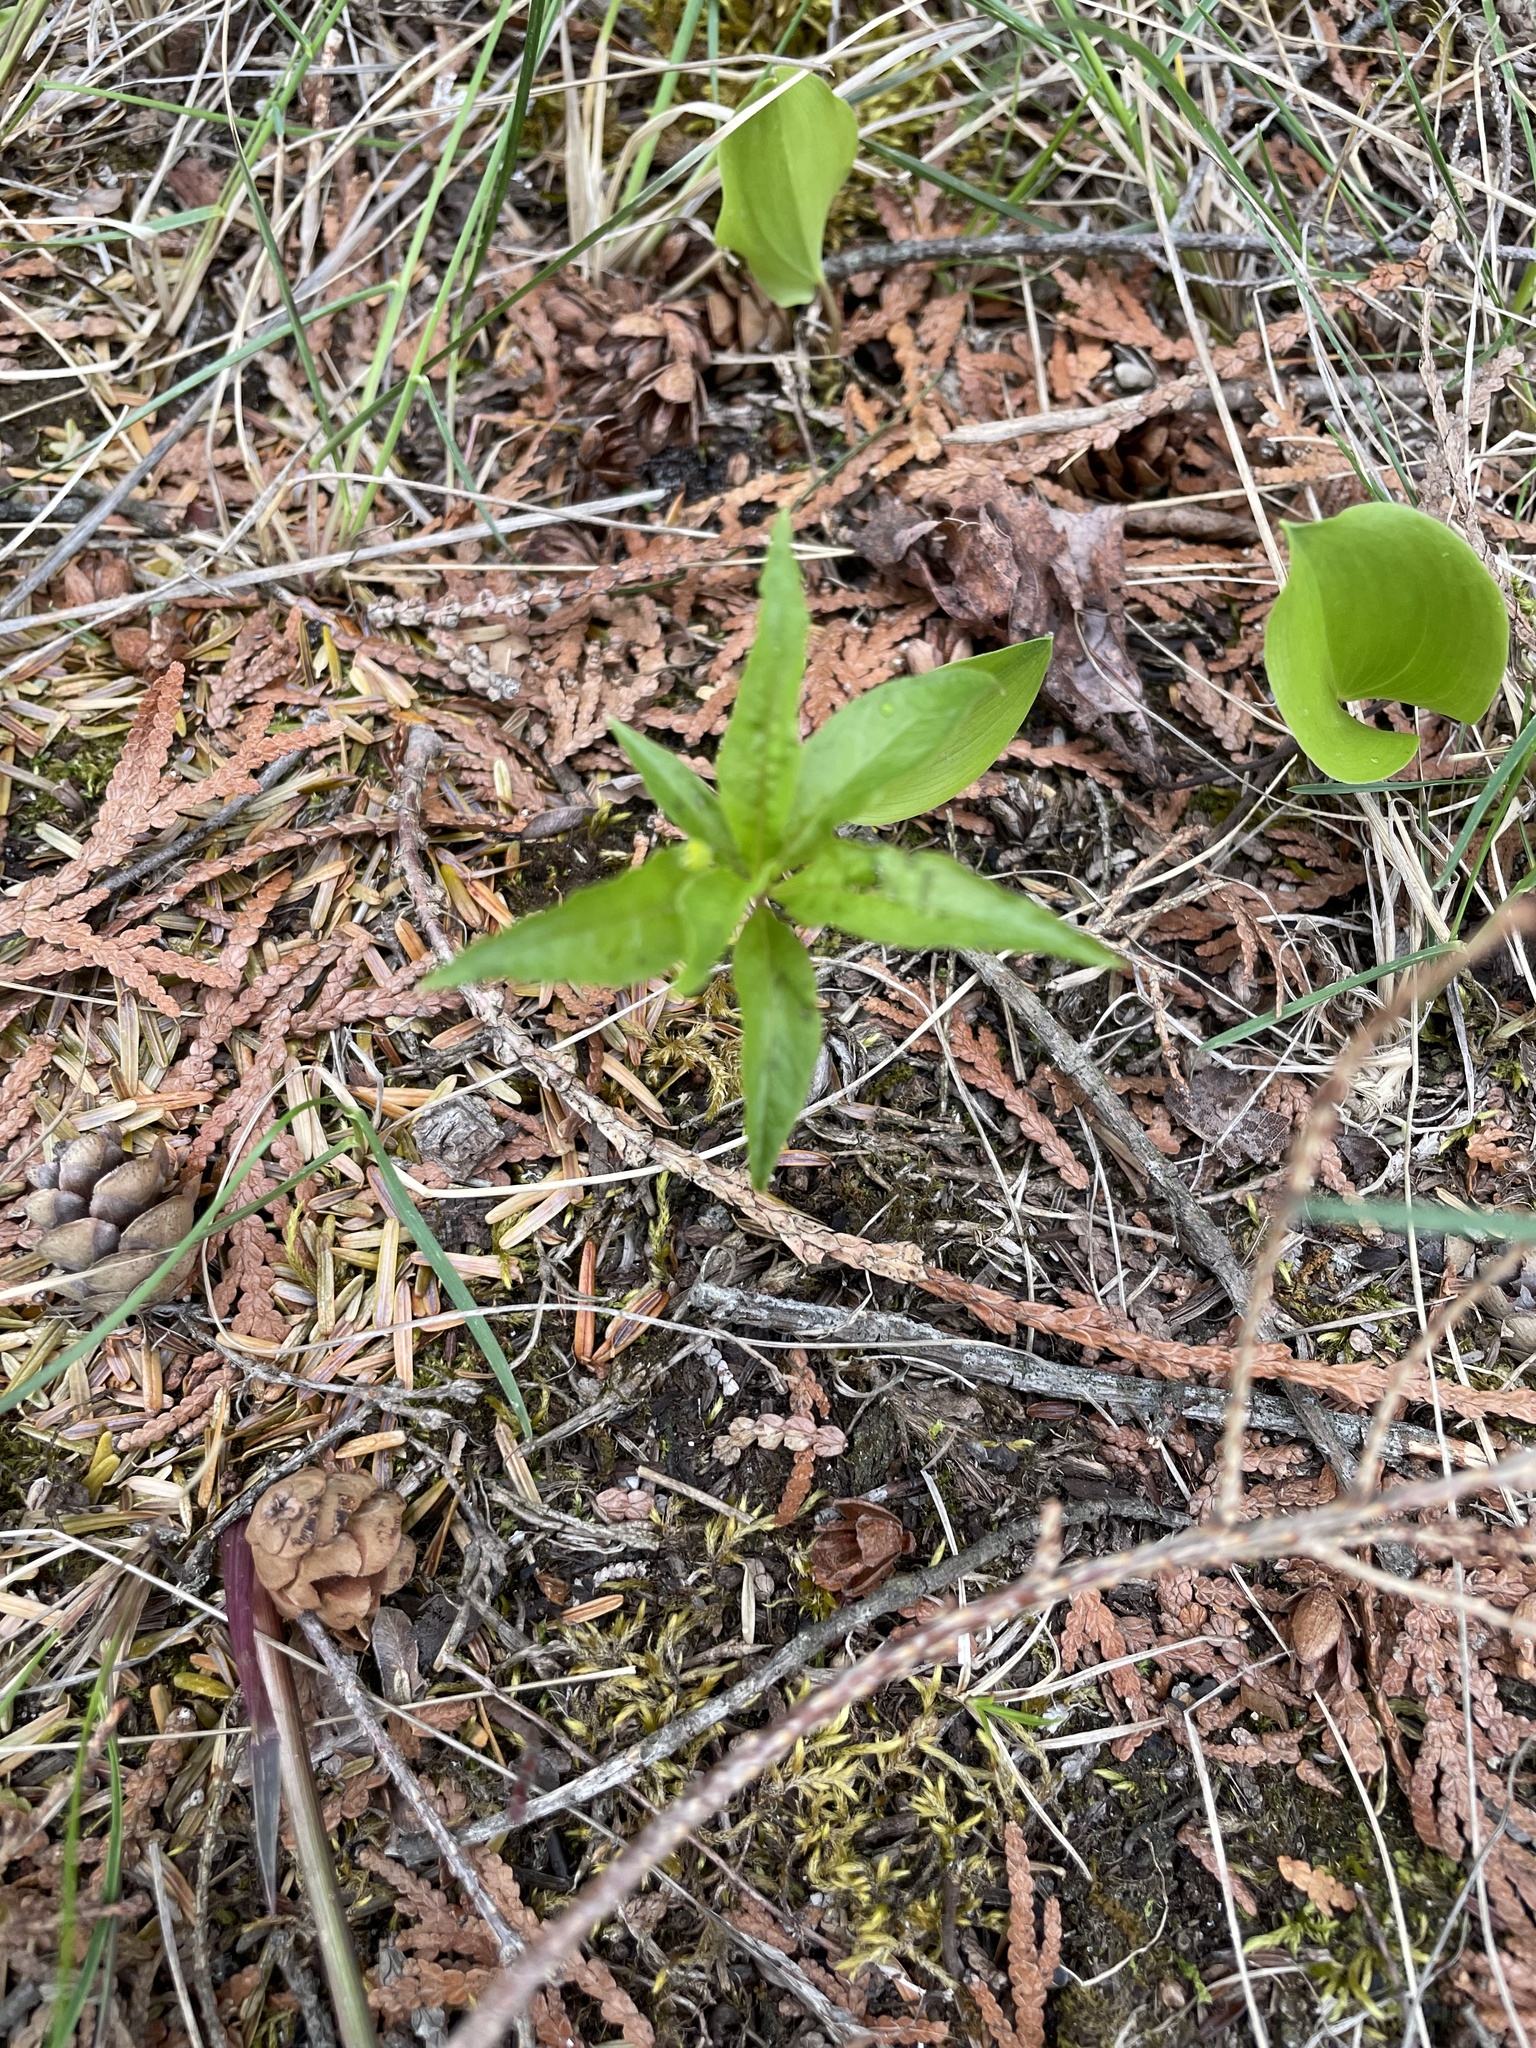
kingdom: Plantae
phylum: Tracheophyta
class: Magnoliopsida
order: Ericales
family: Primulaceae
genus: Lysimachia
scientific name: Lysimachia borealis
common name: American starflower
